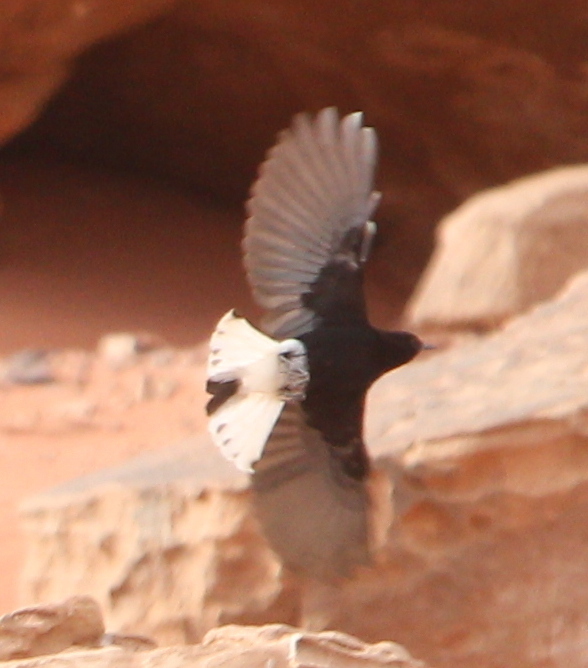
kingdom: Animalia
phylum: Chordata
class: Aves
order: Passeriformes
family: Muscicapidae
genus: Oenanthe
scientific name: Oenanthe leucopyga
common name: White-crowned wheatear
